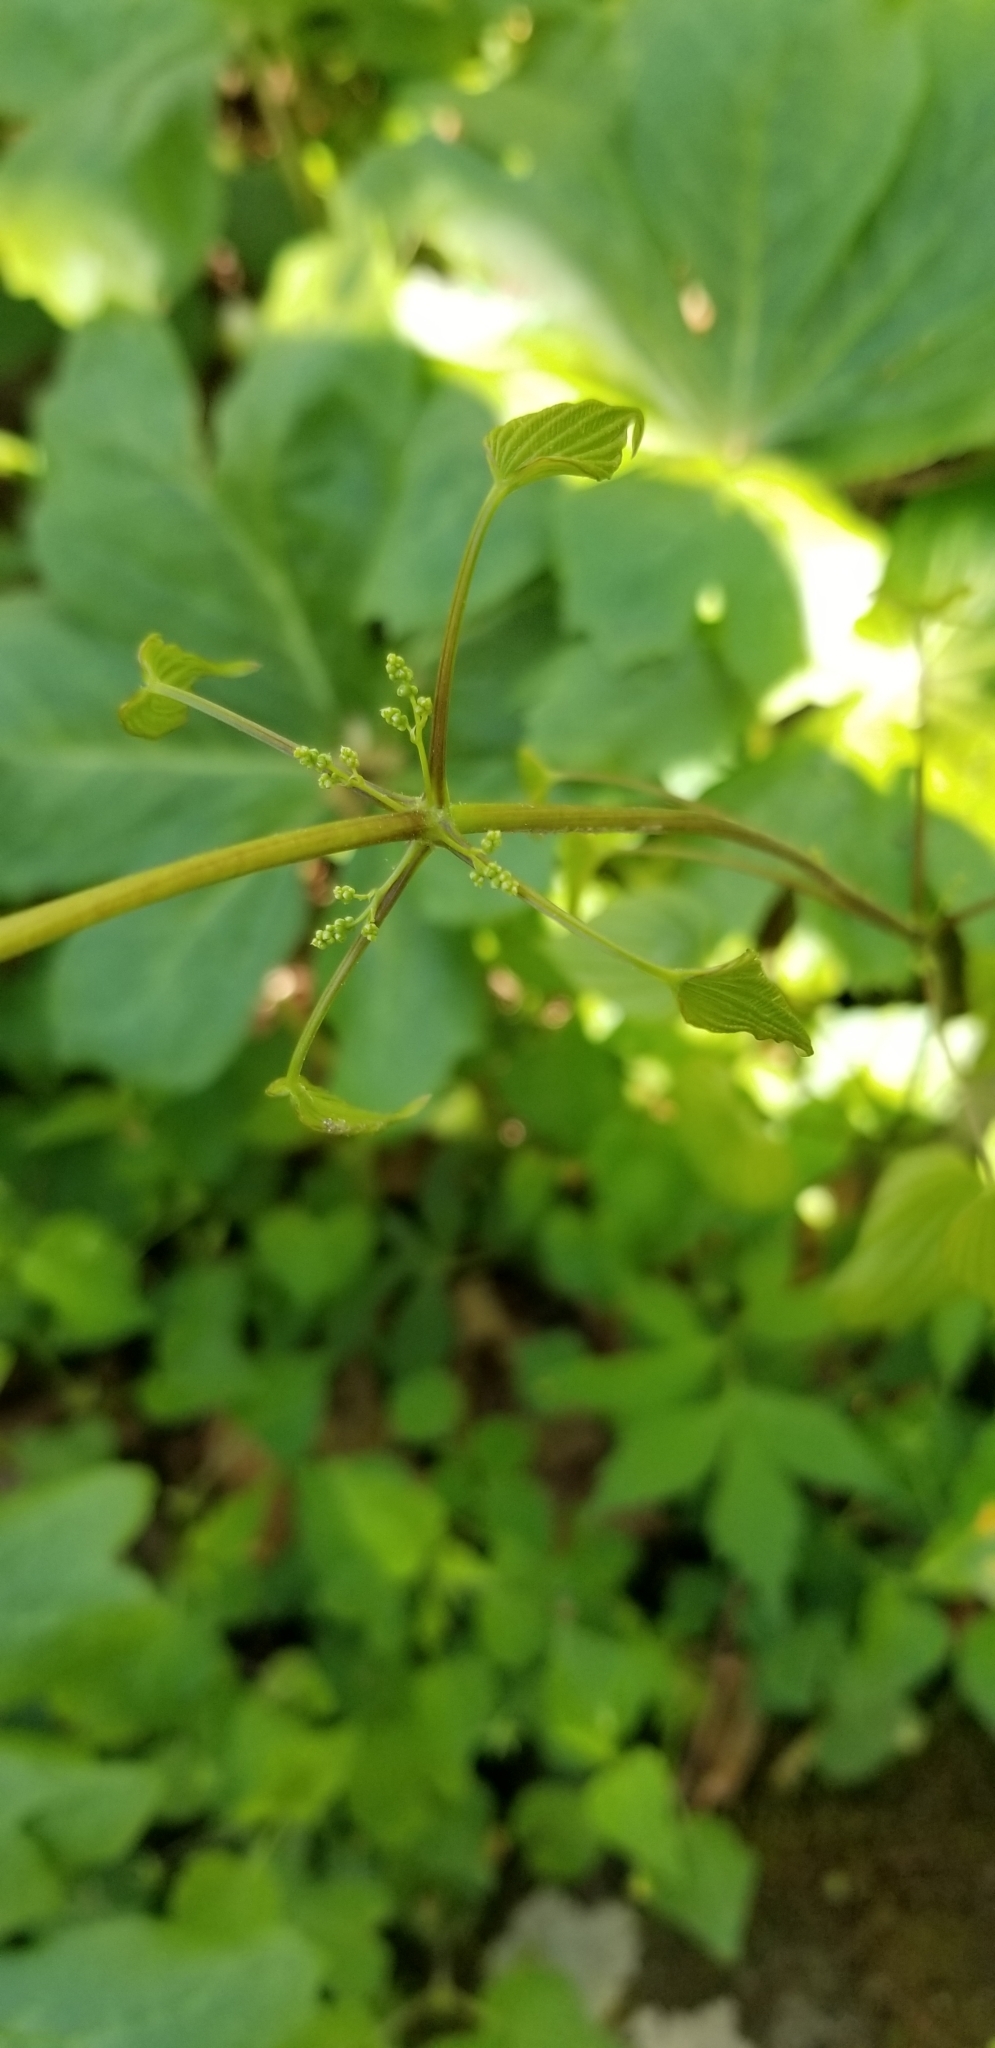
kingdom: Plantae
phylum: Tracheophyta
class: Liliopsida
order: Dioscoreales
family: Dioscoreaceae
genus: Dioscorea
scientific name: Dioscorea villosa
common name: Wild yam
